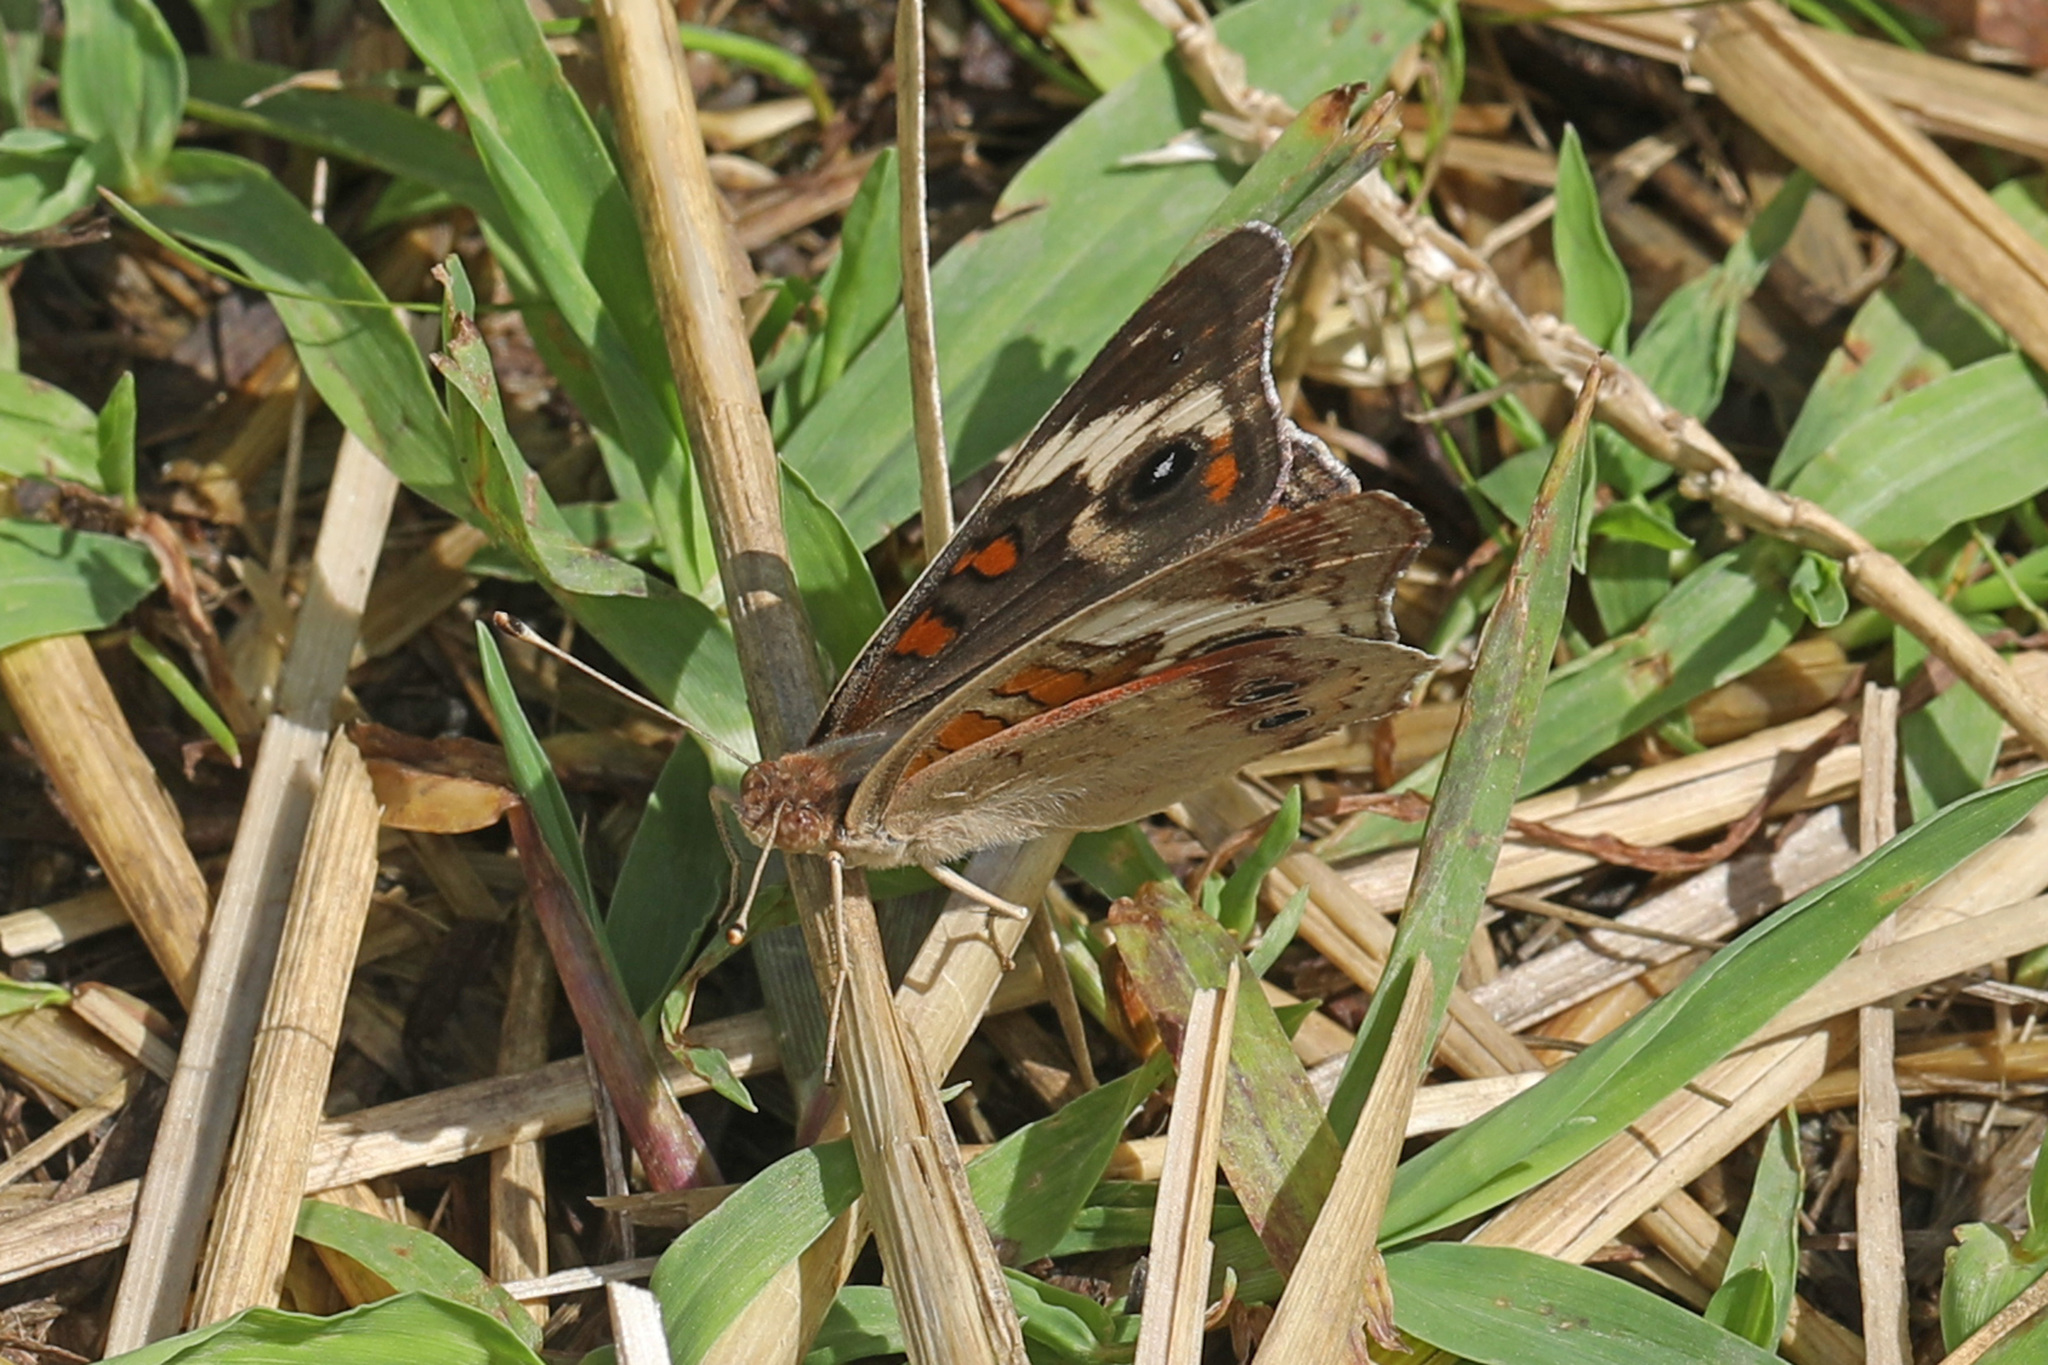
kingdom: Animalia
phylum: Arthropoda
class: Insecta
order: Lepidoptera
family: Nymphalidae
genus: Junonia
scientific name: Junonia coenia
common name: Common buckeye
